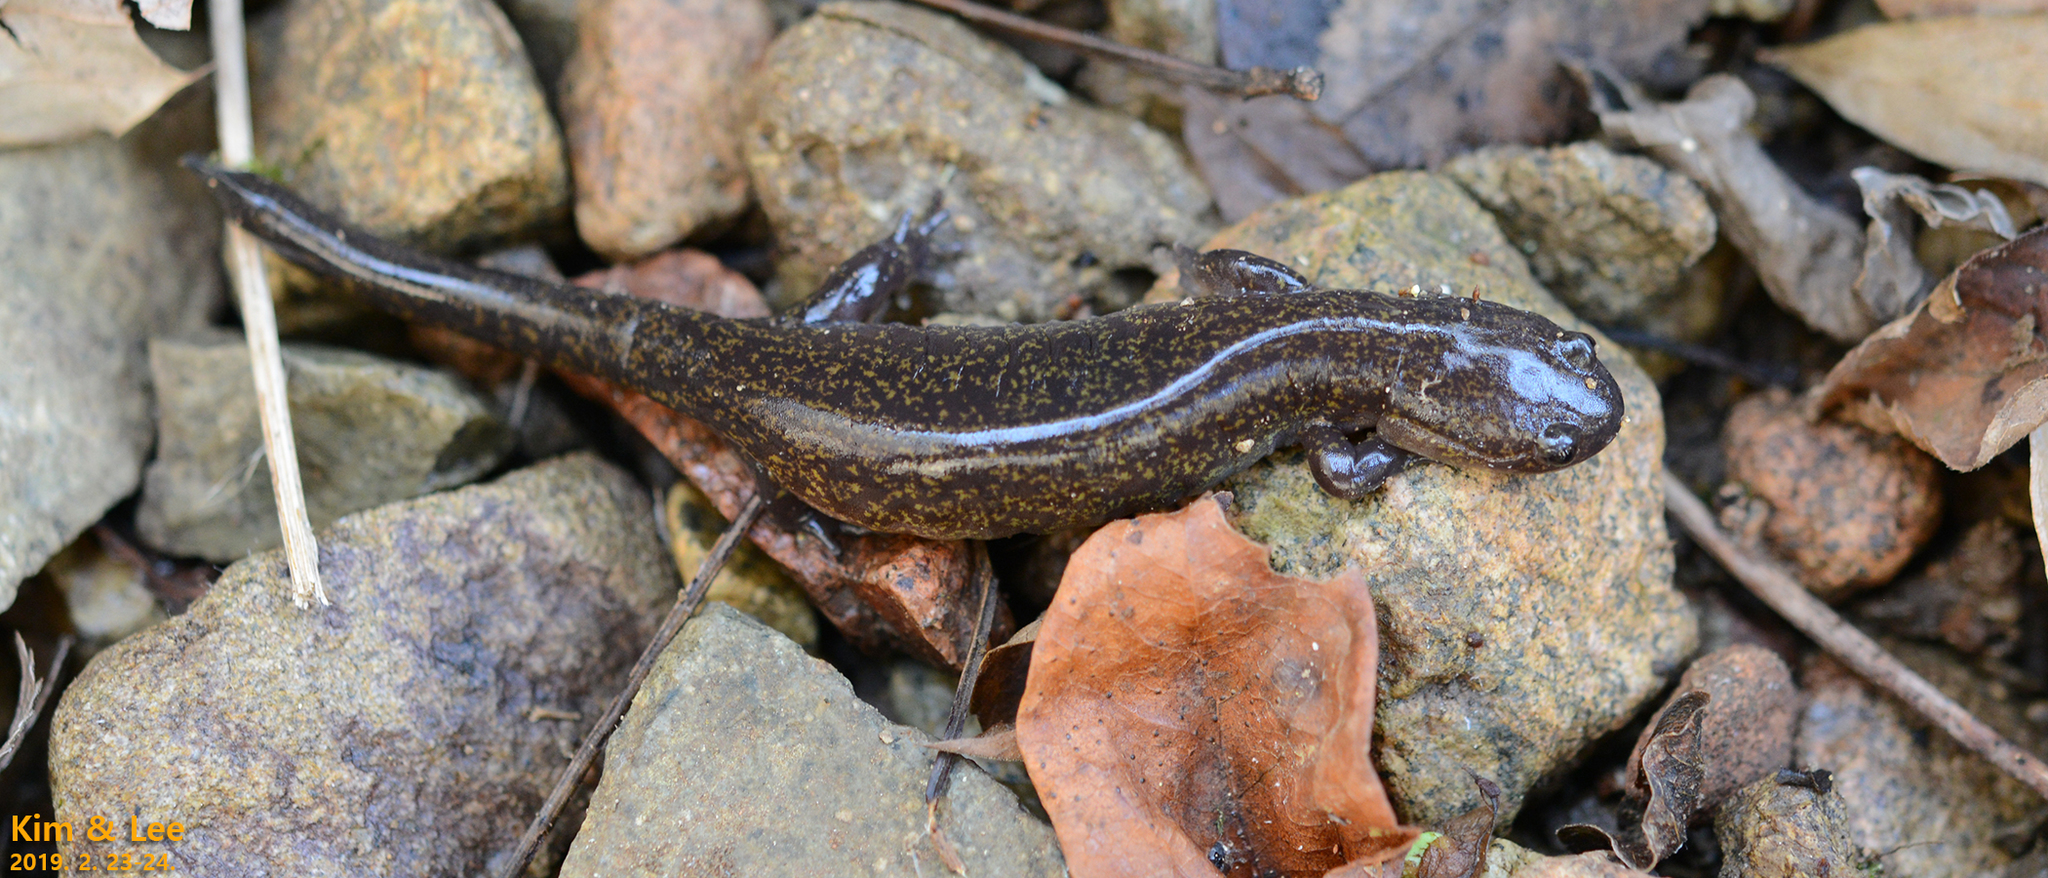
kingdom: Animalia
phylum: Chordata
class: Amphibia
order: Caudata
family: Hynobiidae
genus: Hynobius
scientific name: Hynobius notialis
